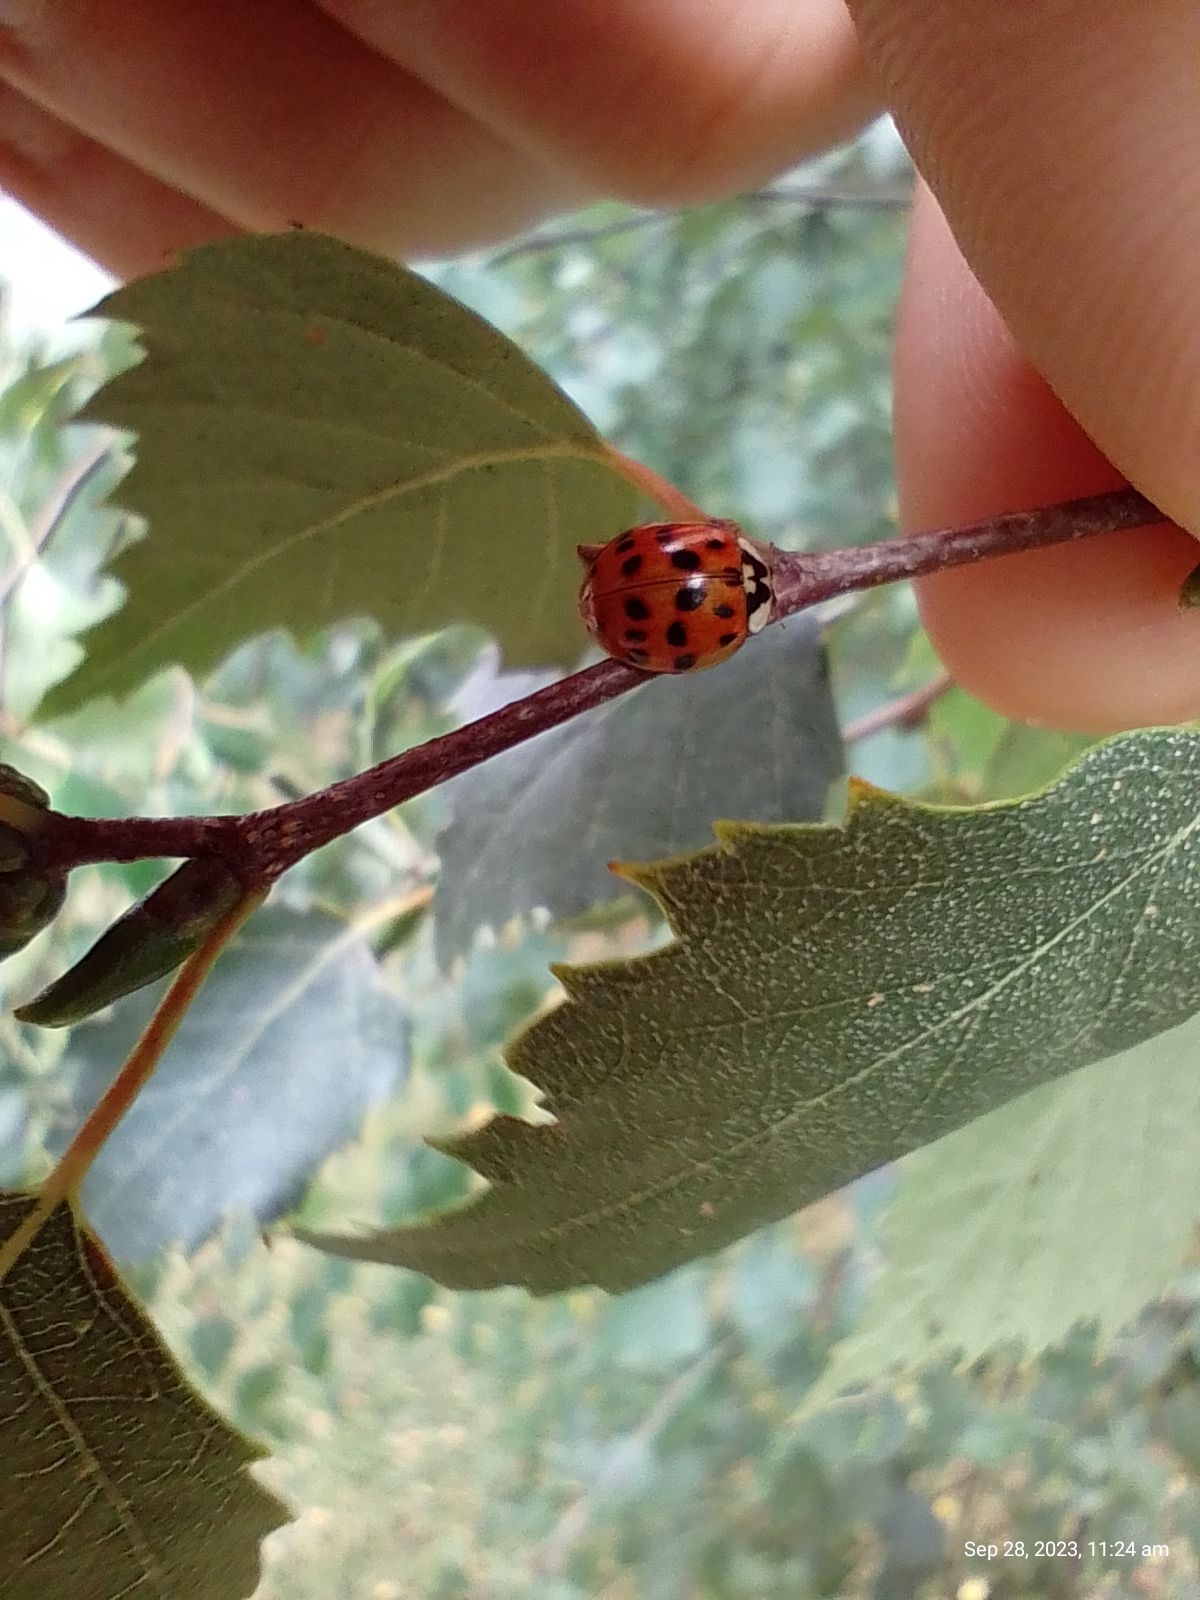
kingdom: Animalia
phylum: Arthropoda
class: Insecta
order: Coleoptera
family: Coccinellidae
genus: Harmonia
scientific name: Harmonia axyridis
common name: Harlequin ladybird
